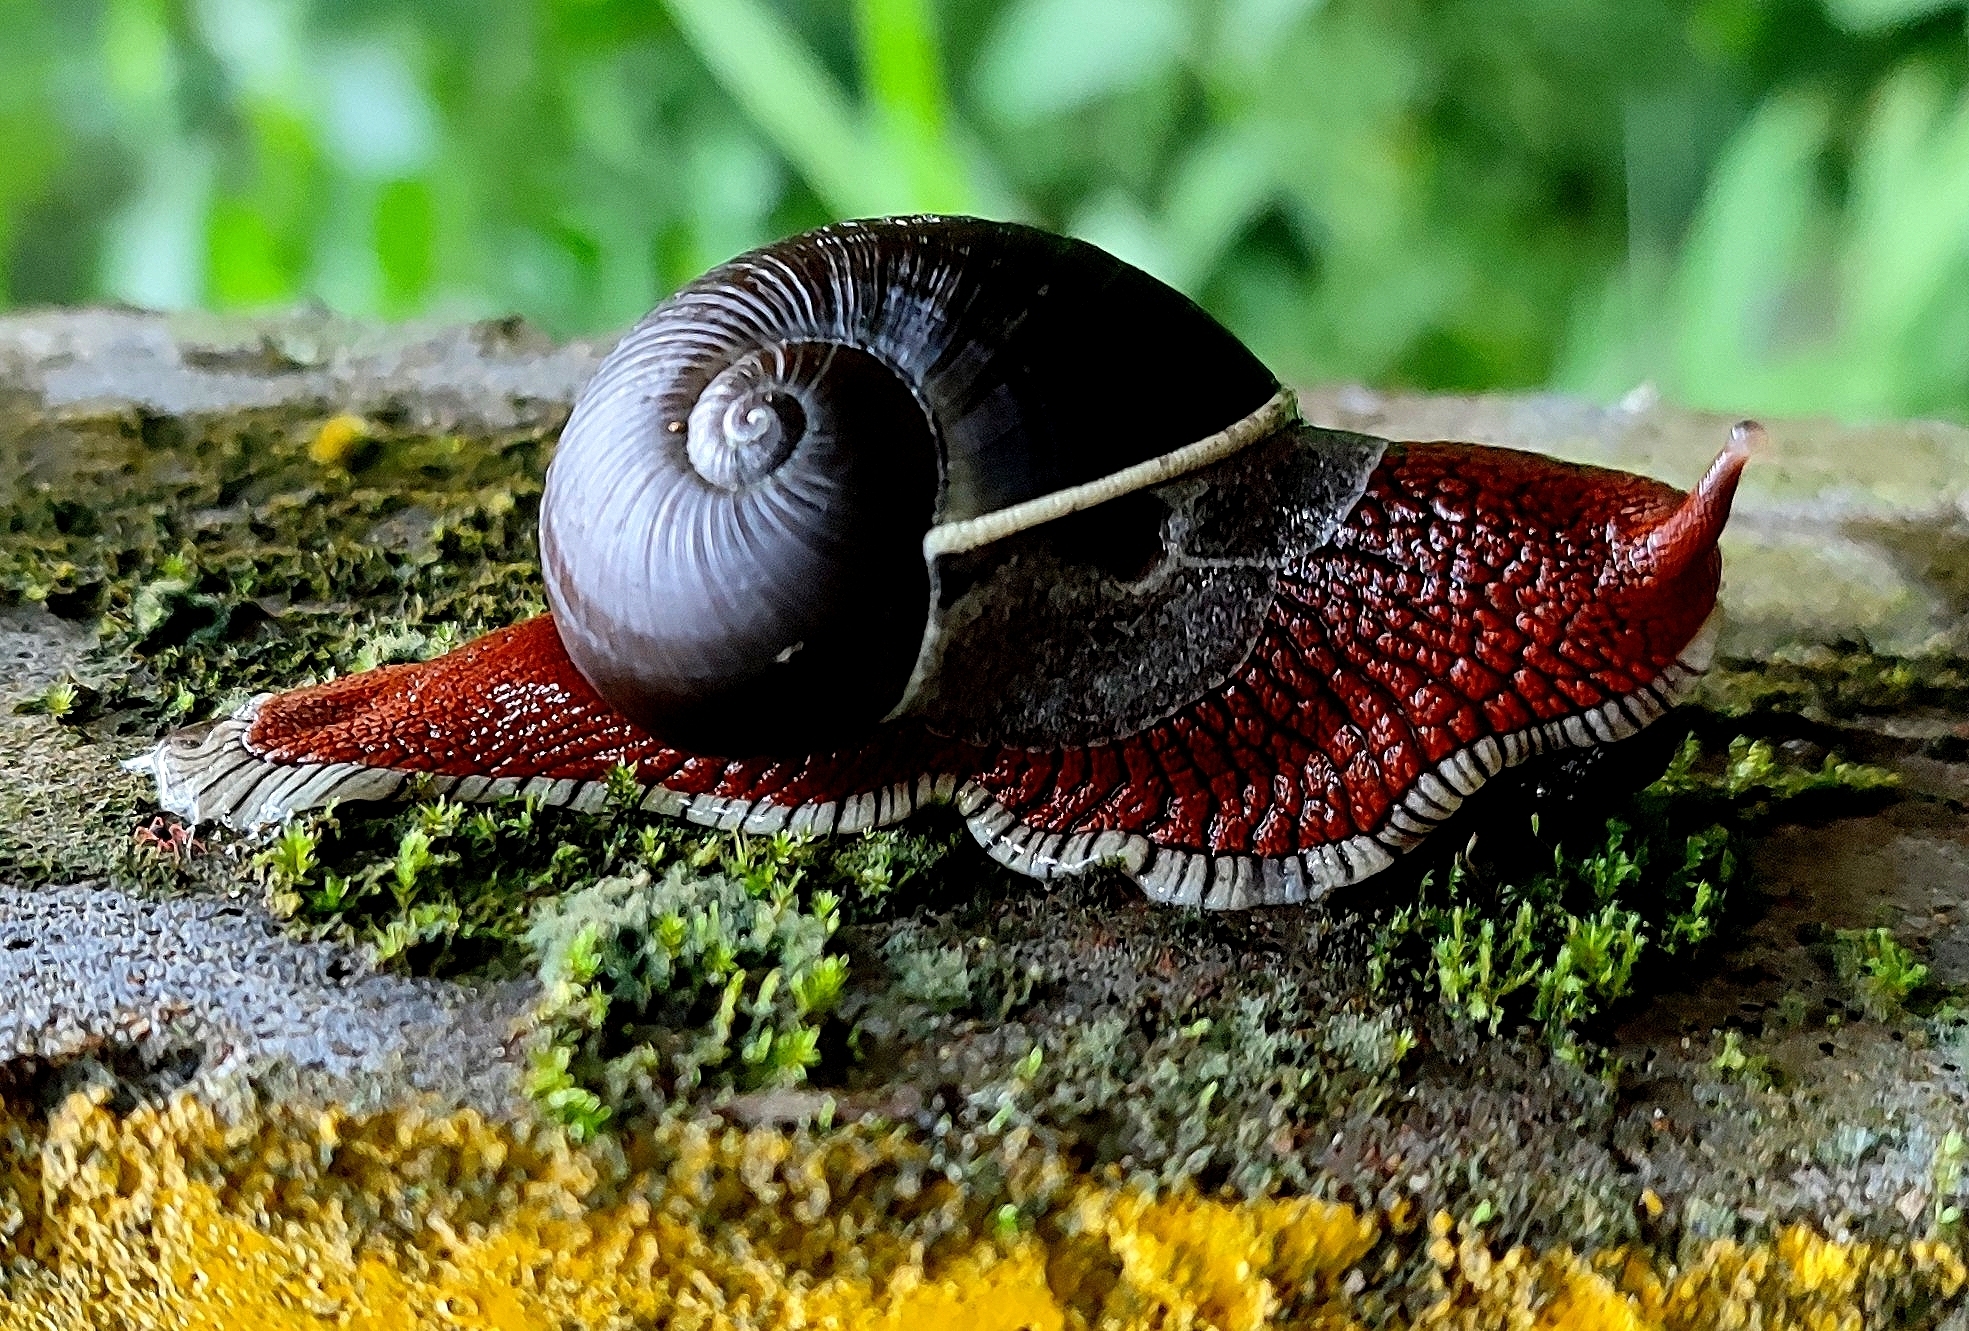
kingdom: Animalia
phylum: Mollusca
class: Gastropoda
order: Stylommatophora
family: Ariophantidae
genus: Indrella
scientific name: Indrella ampulla
